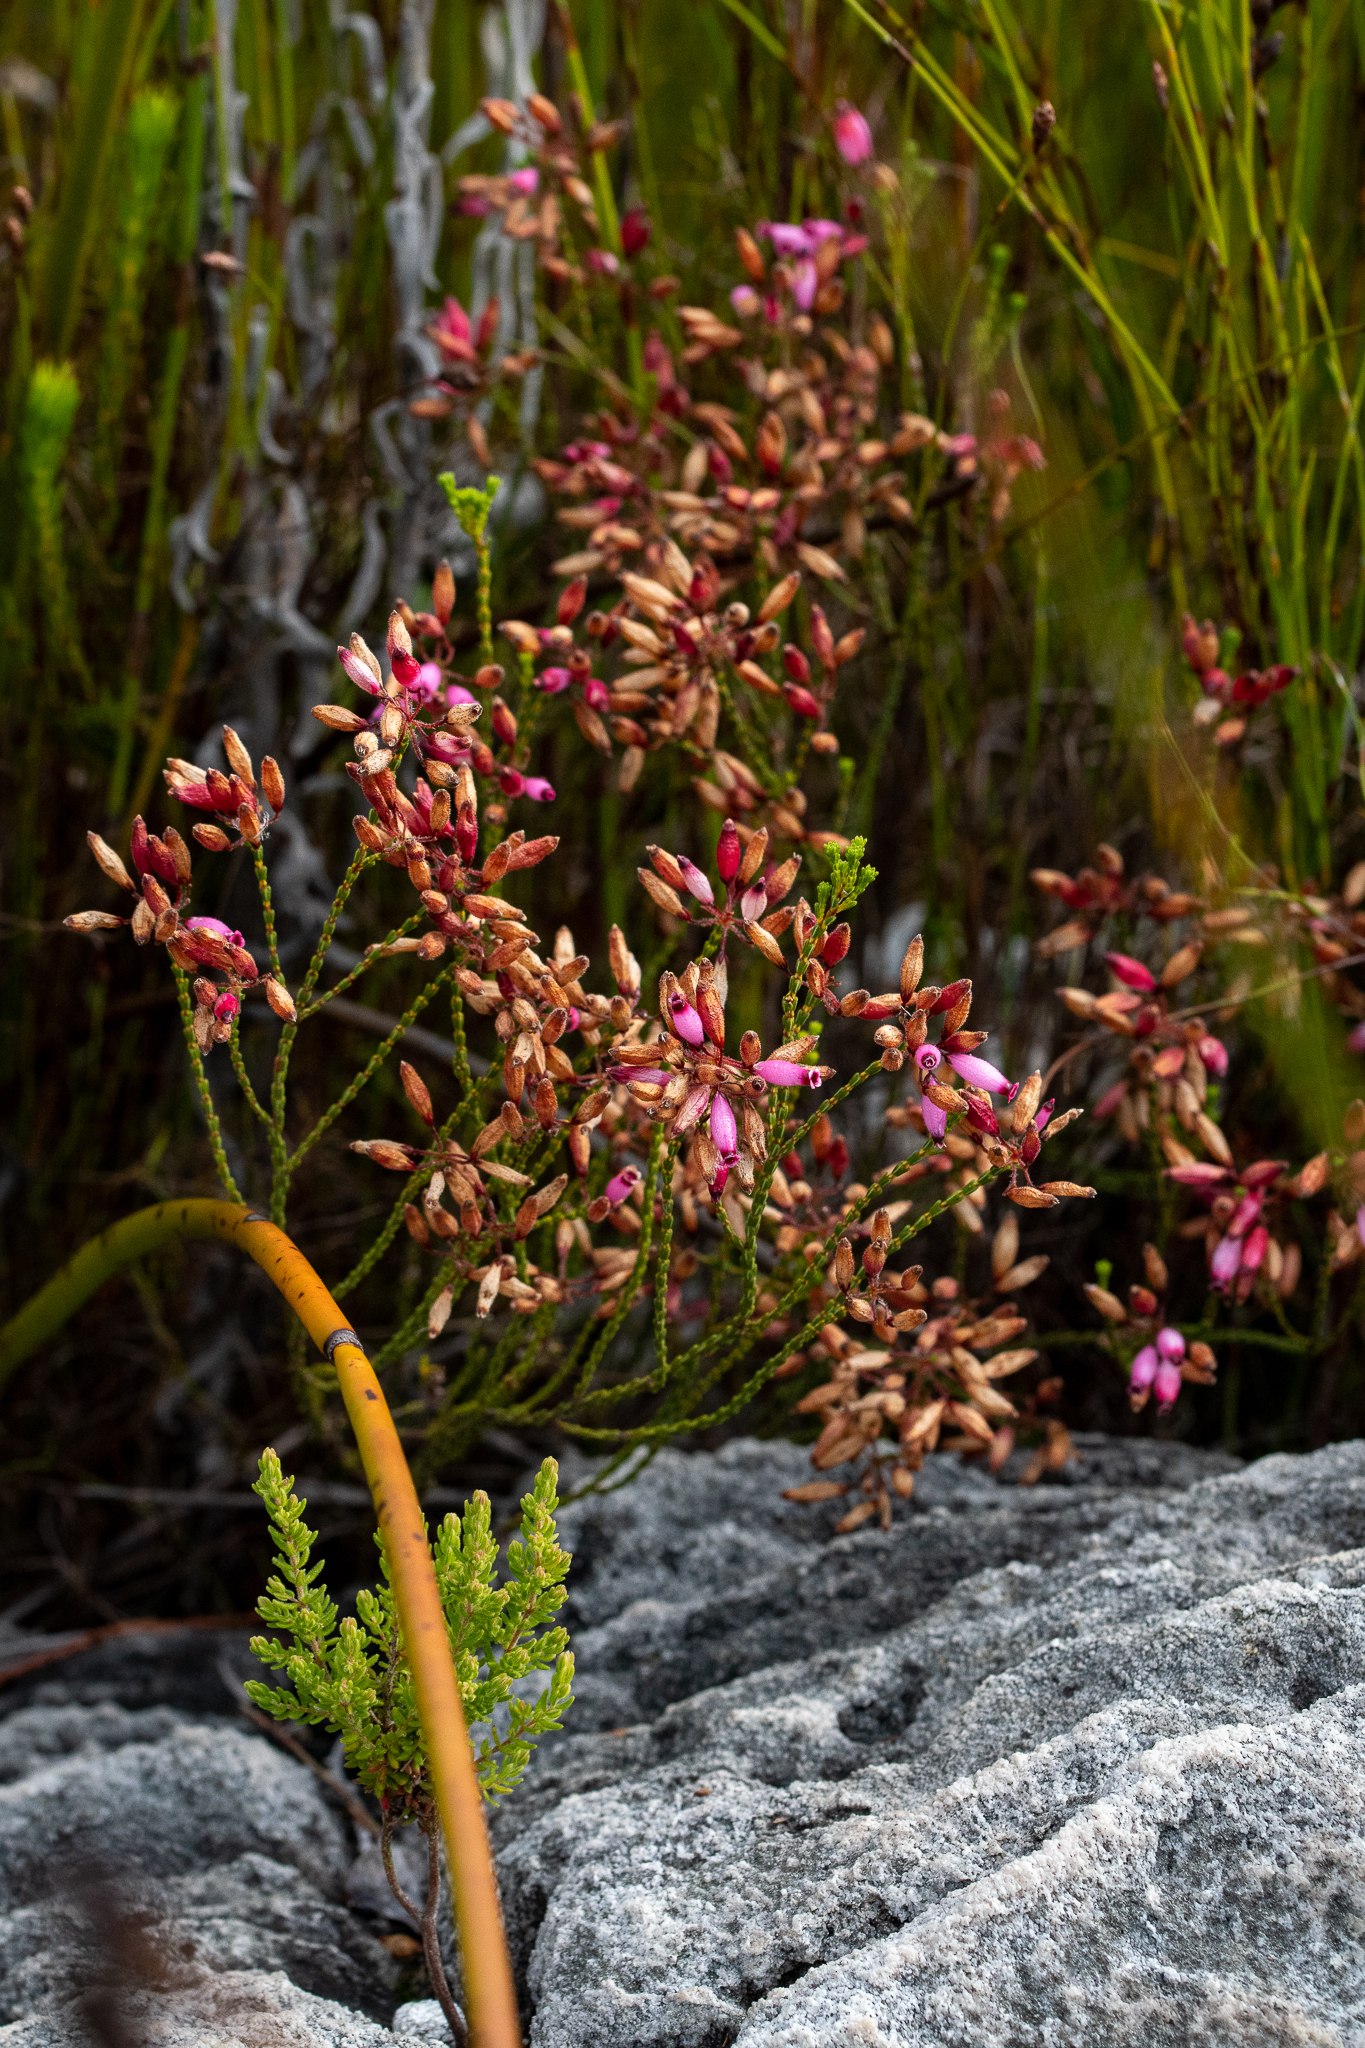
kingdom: Plantae
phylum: Tracheophyta
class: Magnoliopsida
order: Ericales
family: Ericaceae
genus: Erica
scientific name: Erica cristata
